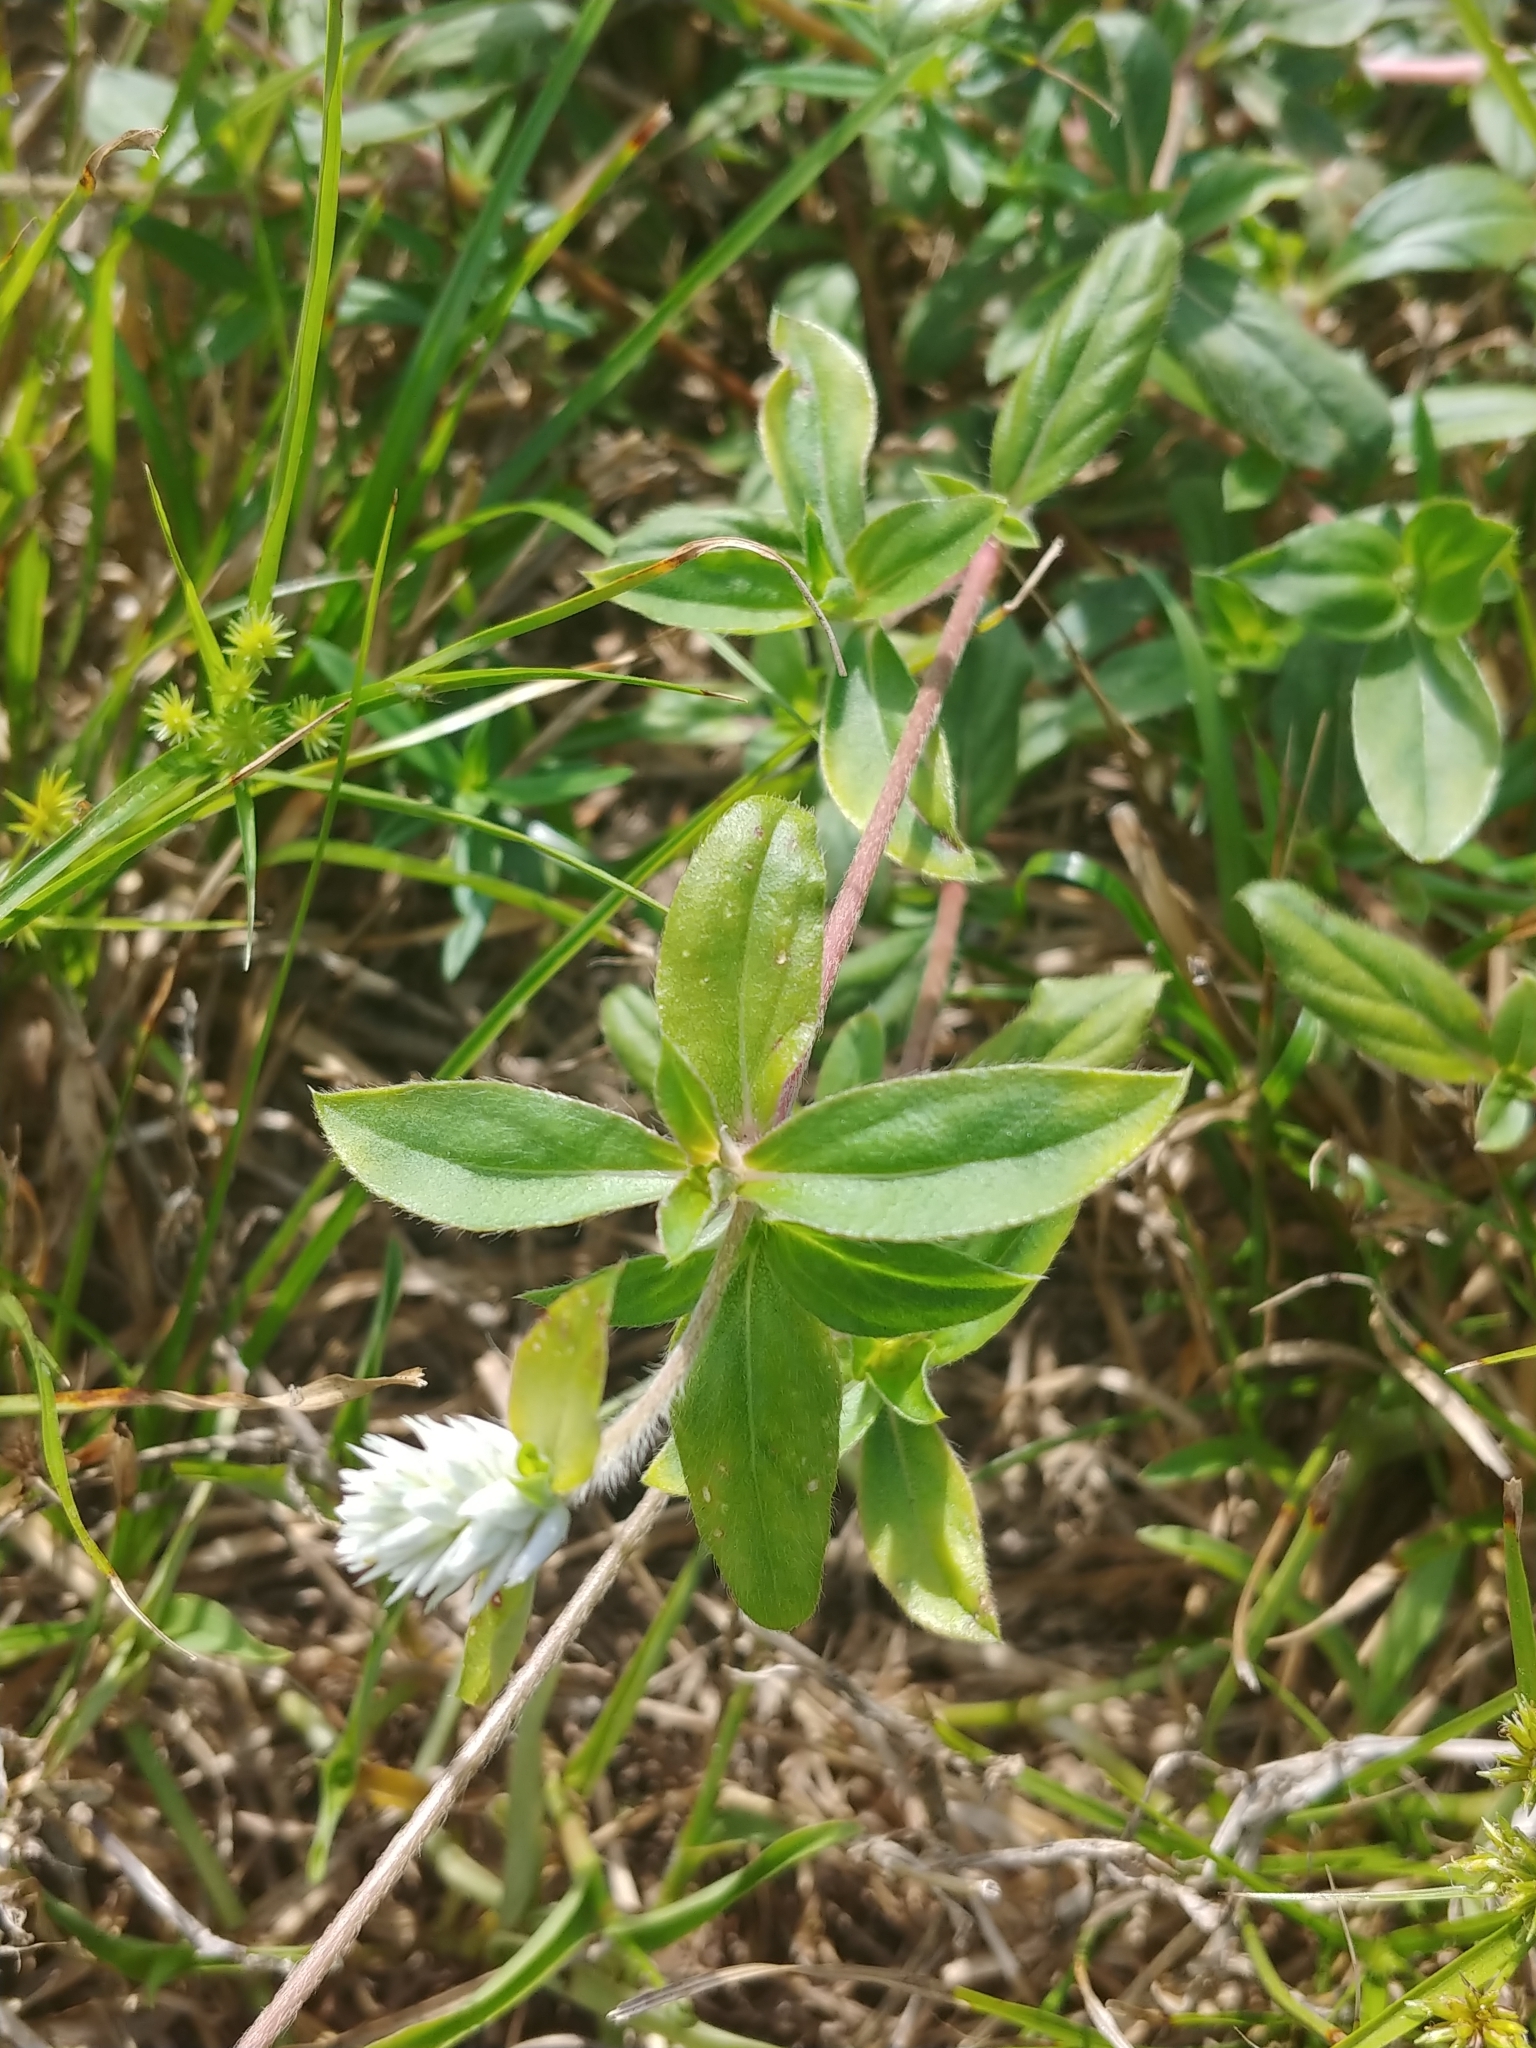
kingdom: Plantae
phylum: Tracheophyta
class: Magnoliopsida
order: Caryophyllales
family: Amaranthaceae
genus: Gomphrena
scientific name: Gomphrena serrata
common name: Arrasa con todo
